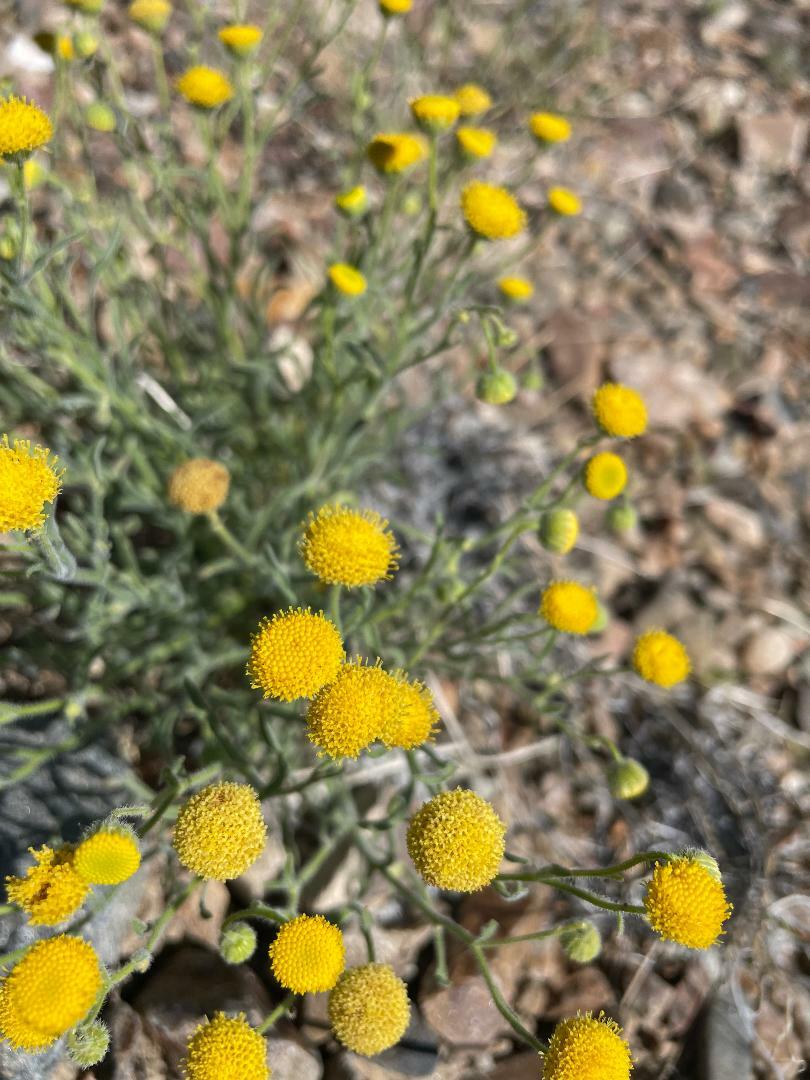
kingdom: Plantae
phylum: Tracheophyta
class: Magnoliopsida
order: Asterales
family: Asteraceae
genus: Erigeron
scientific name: Erigeron aphanactis
